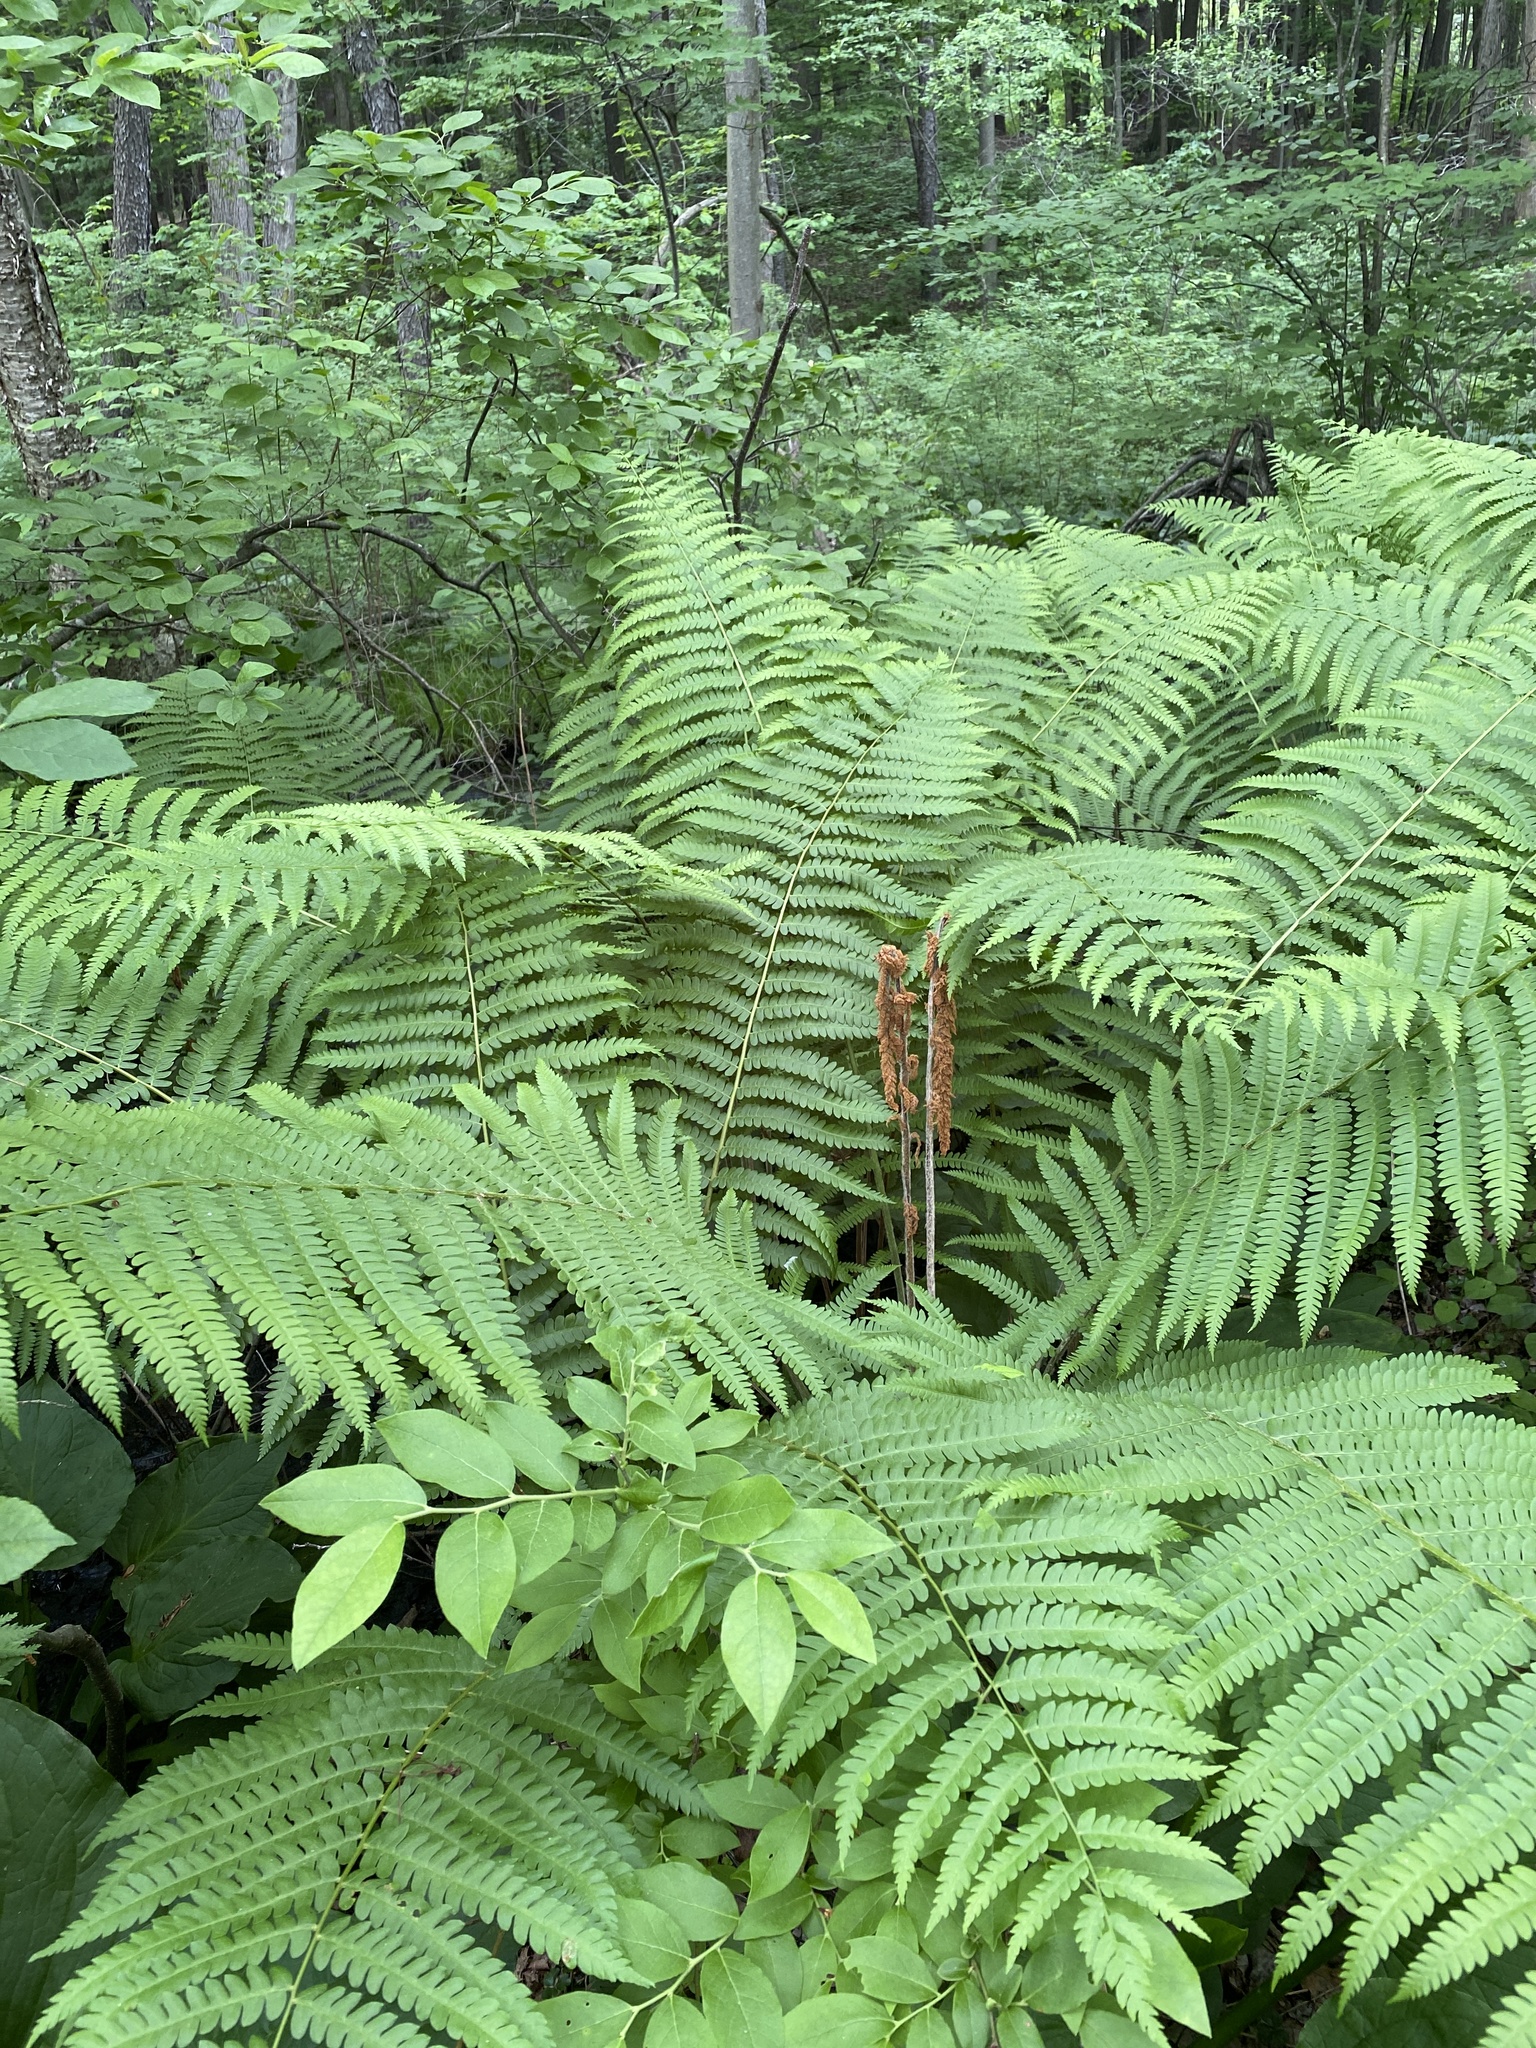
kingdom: Plantae
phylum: Tracheophyta
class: Polypodiopsida
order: Osmundales
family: Osmundaceae
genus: Osmundastrum
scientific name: Osmundastrum cinnamomeum
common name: Cinnamon fern
